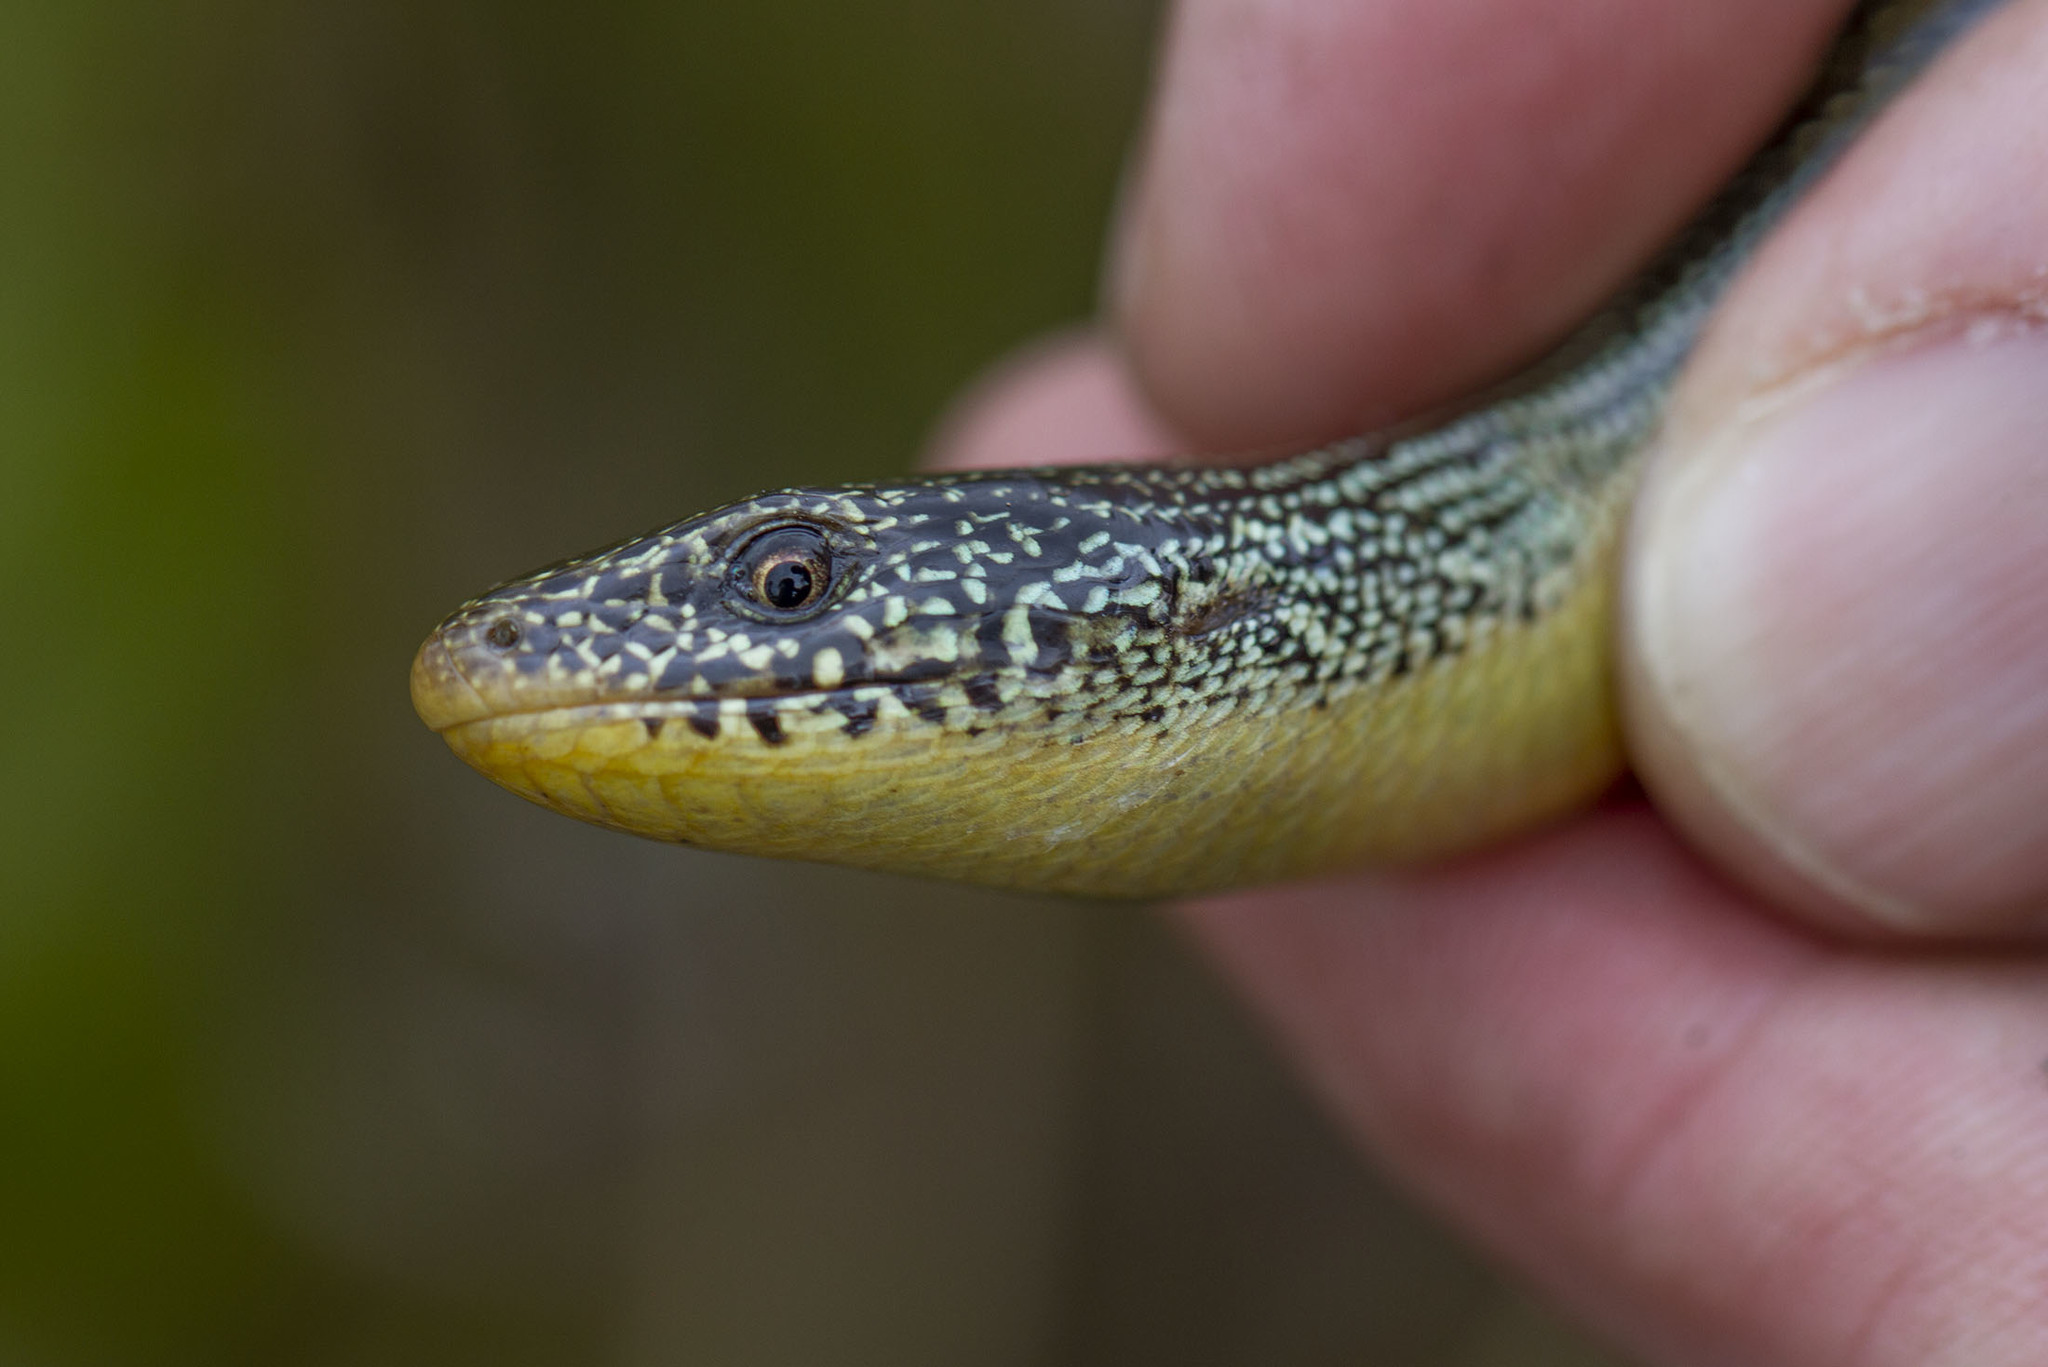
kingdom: Animalia
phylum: Chordata
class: Squamata
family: Anguidae
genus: Ophisaurus
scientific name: Ophisaurus ventralis
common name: Eastern glass lizard
